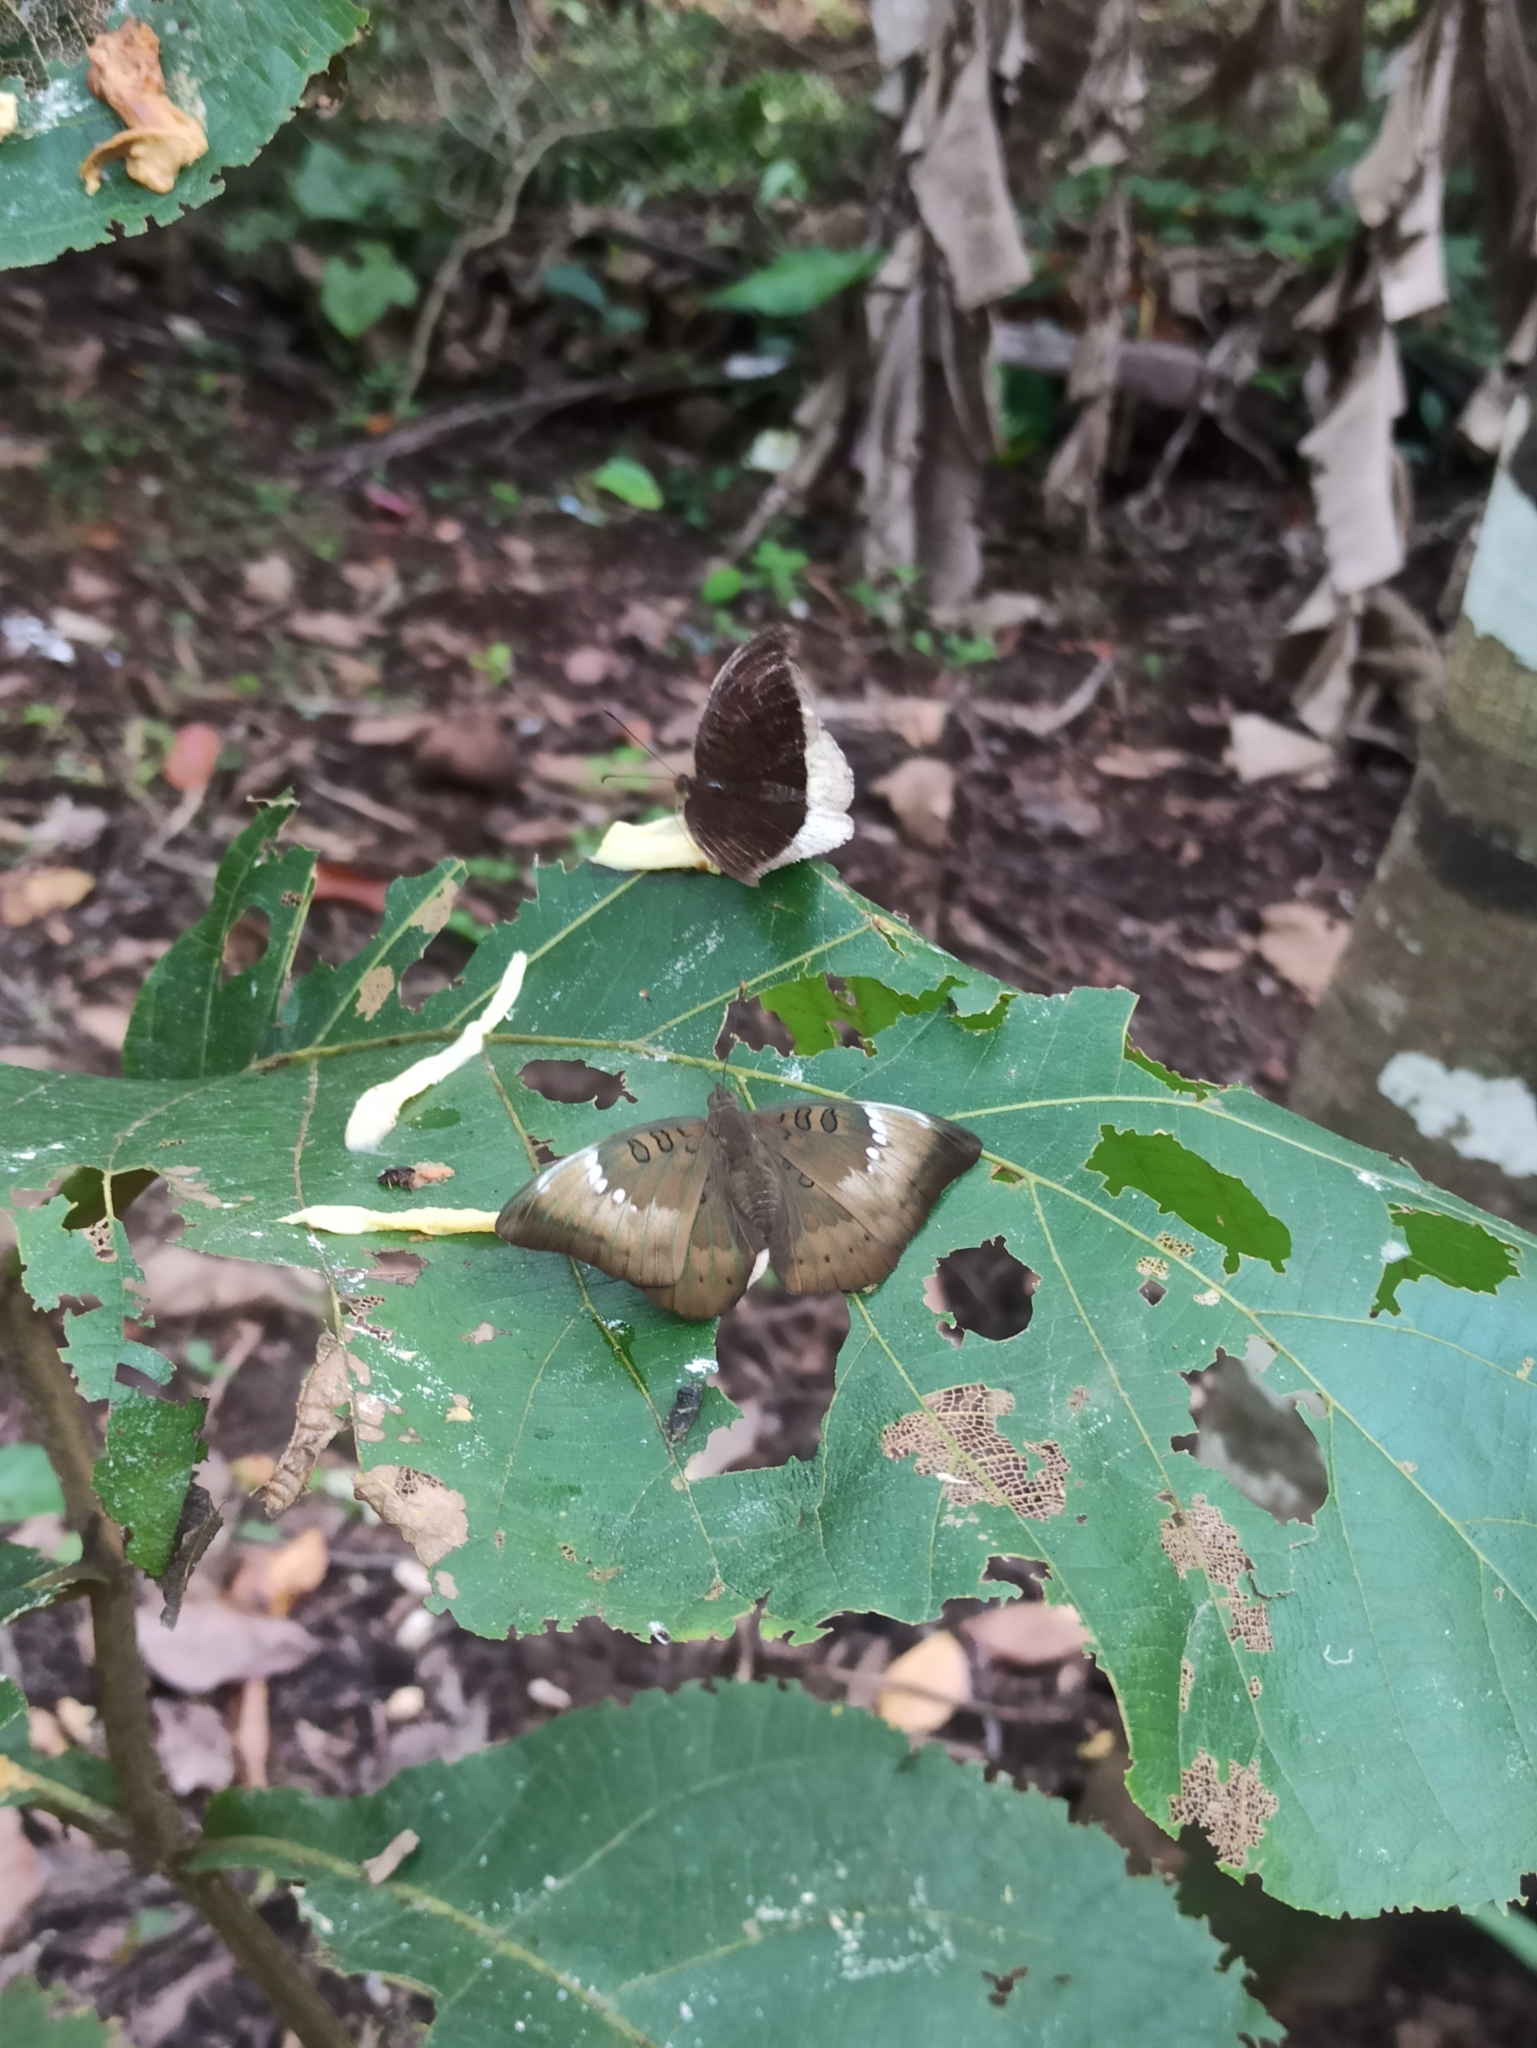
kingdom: Animalia
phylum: Arthropoda
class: Insecta
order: Lepidoptera
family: Nymphalidae
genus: Euthalia
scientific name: Euthalia aconthea
